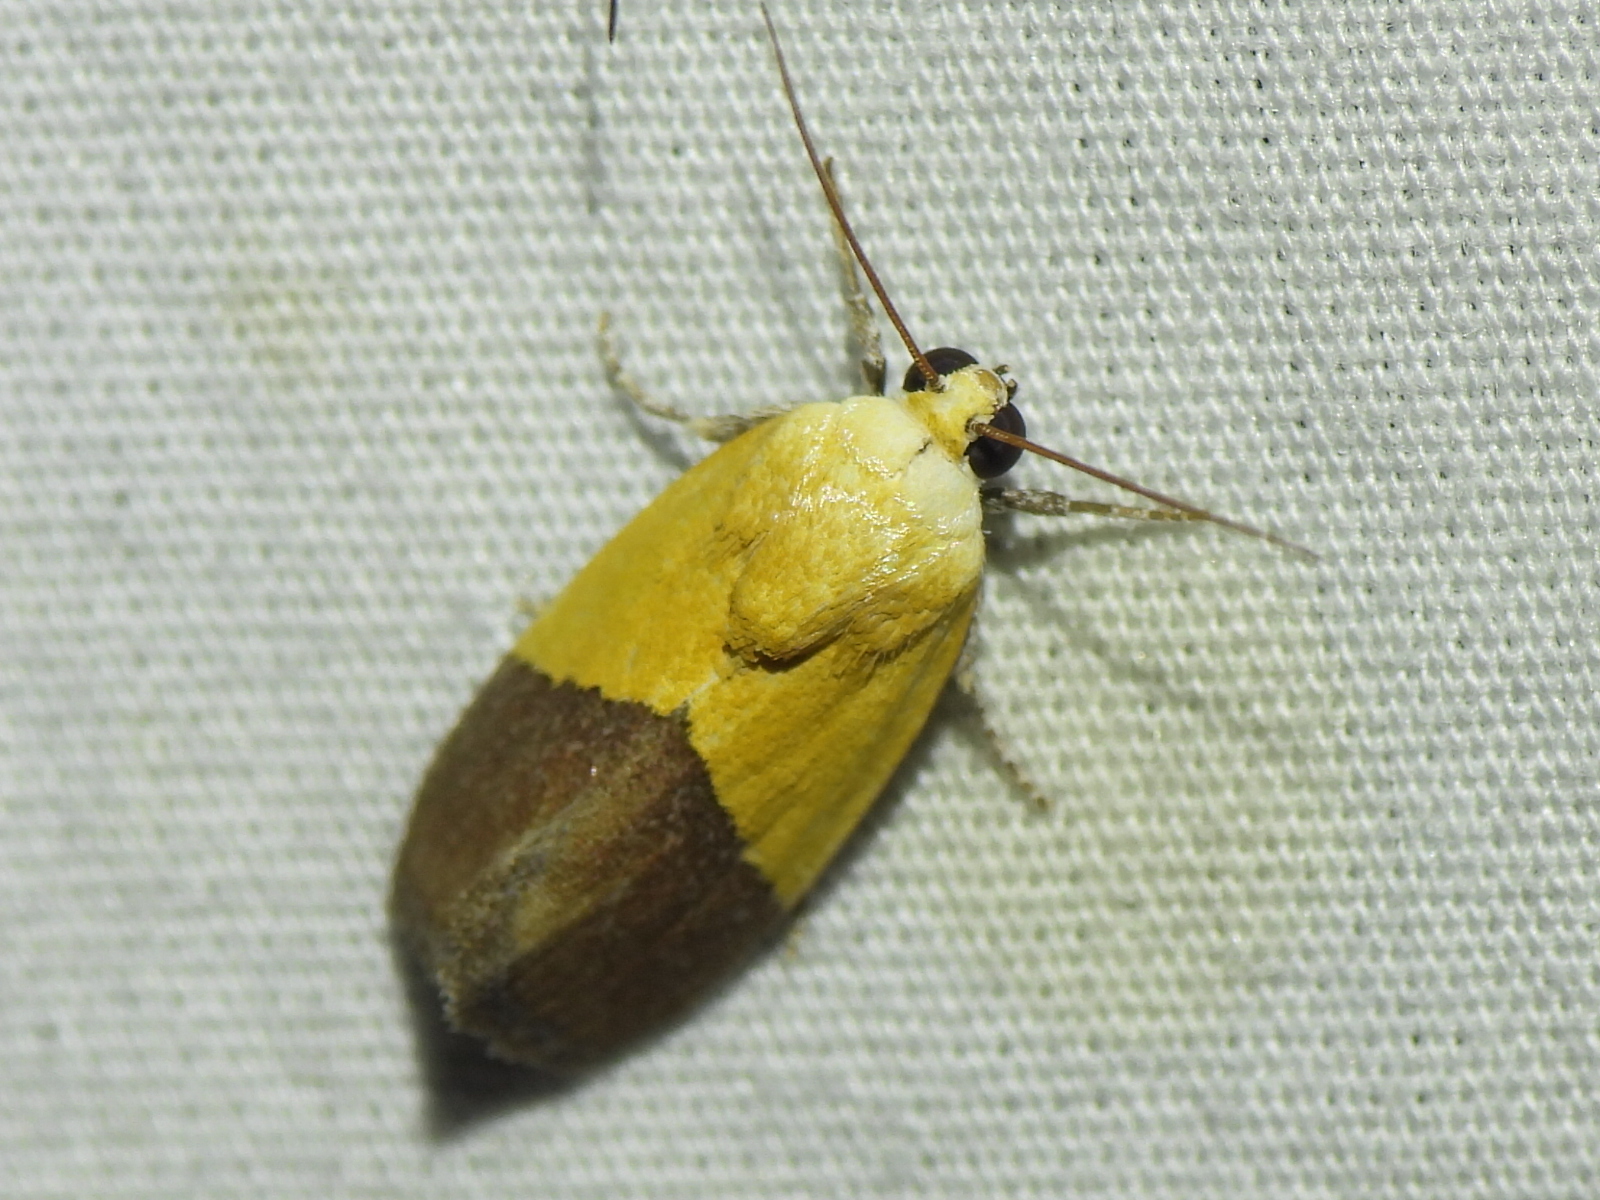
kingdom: Animalia
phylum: Arthropoda
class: Insecta
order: Lepidoptera
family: Noctuidae
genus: Acontia
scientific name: Acontia semiflava
